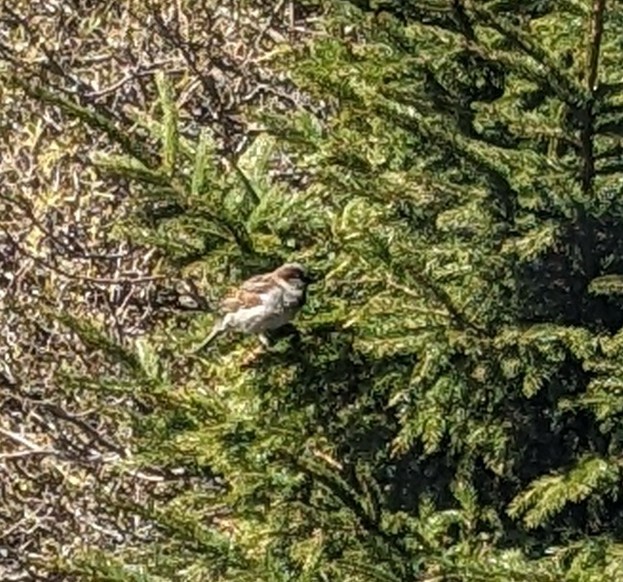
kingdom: Animalia
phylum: Chordata
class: Aves
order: Passeriformes
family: Passeridae
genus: Passer
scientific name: Passer domesticus
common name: House sparrow
